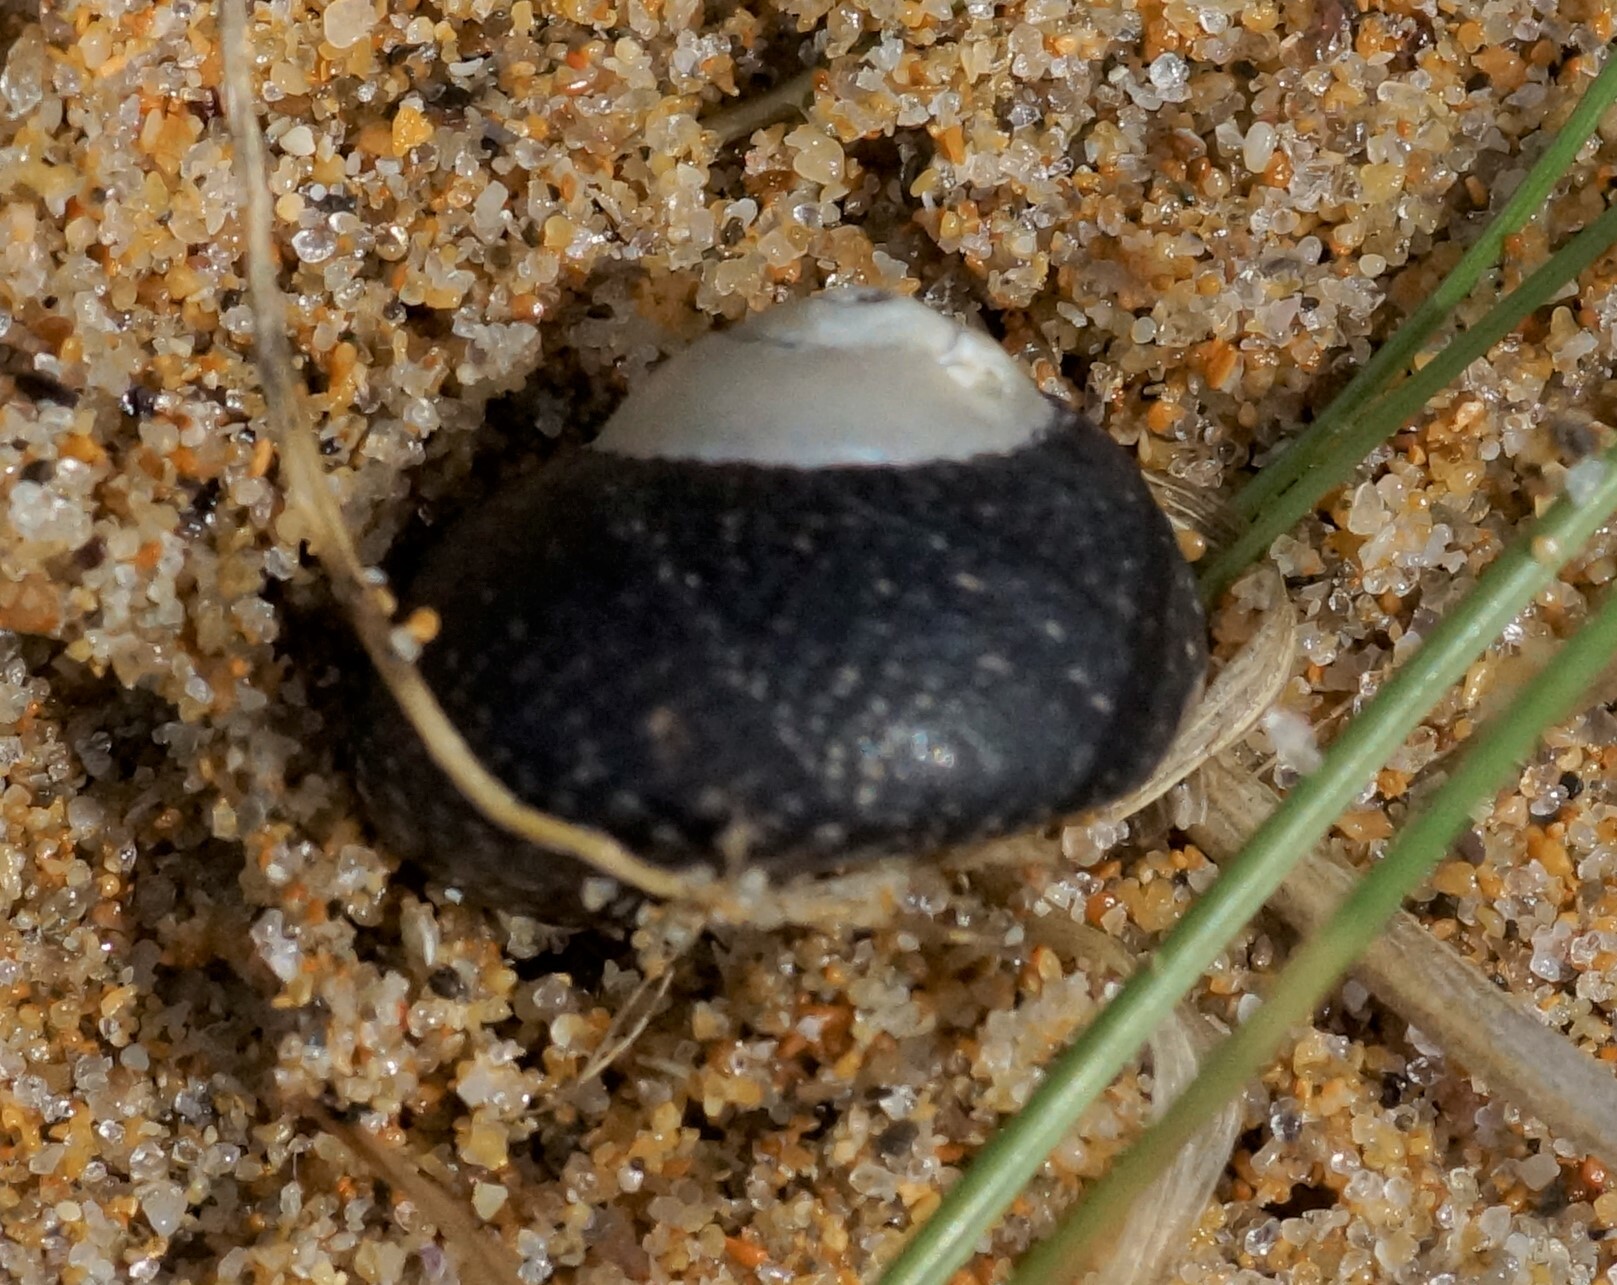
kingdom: Animalia
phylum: Mollusca
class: Gastropoda
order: Trochida
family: Trochidae
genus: Chlorodiloma
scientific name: Chlorodiloma odontis
